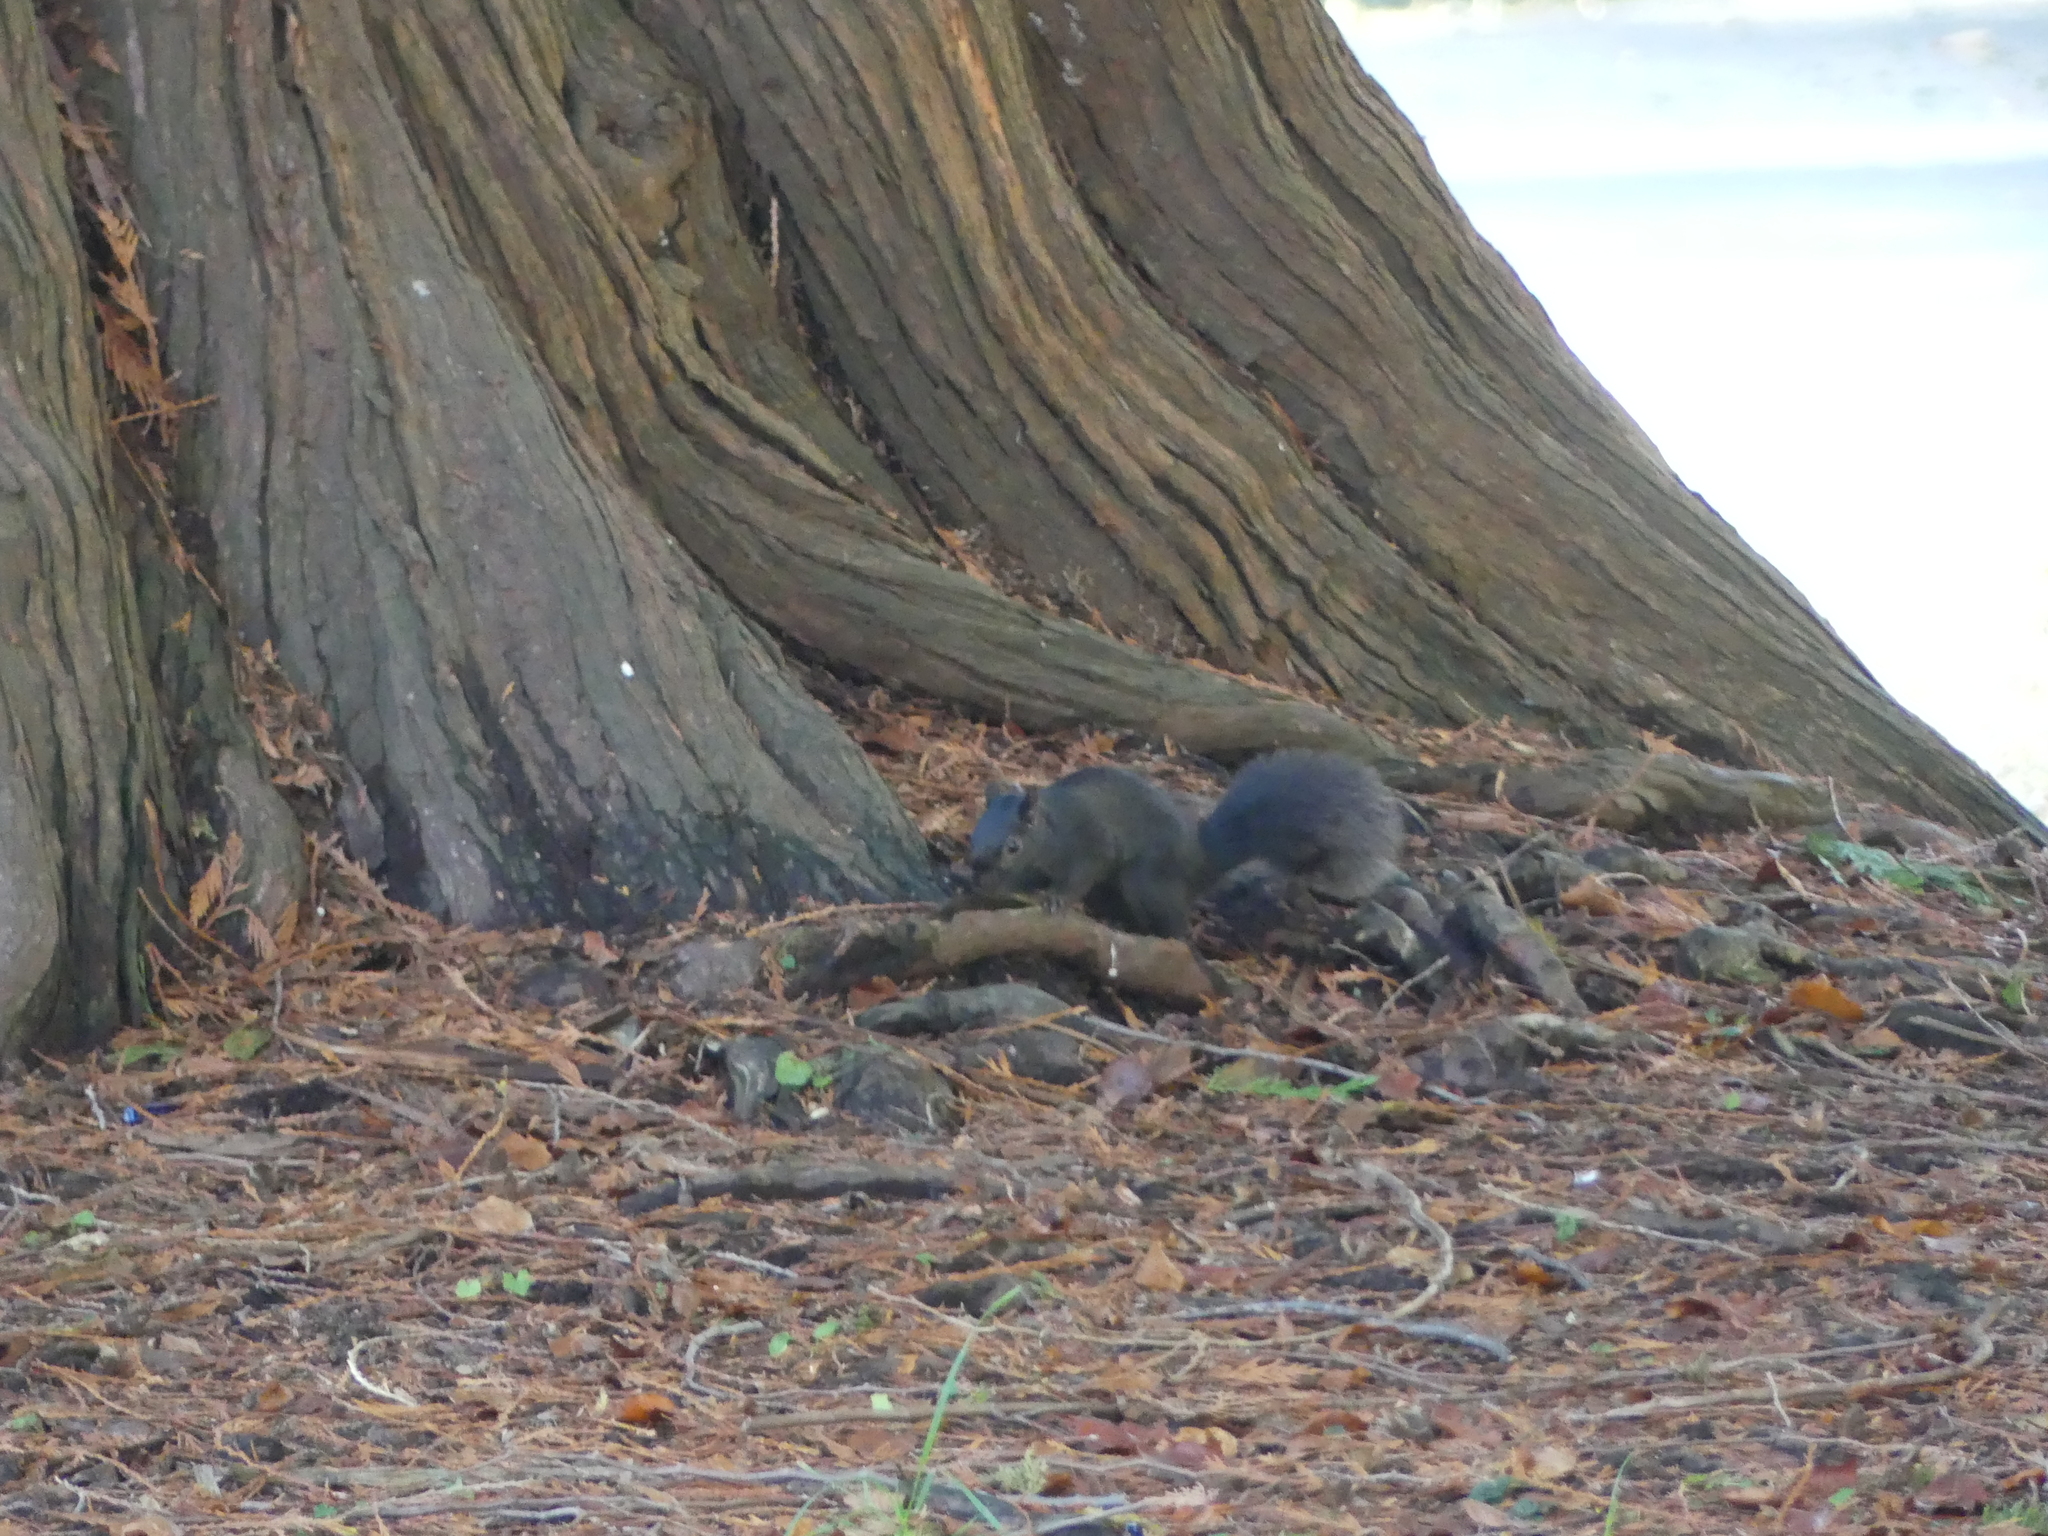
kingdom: Animalia
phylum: Chordata
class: Mammalia
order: Rodentia
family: Sciuridae
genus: Sciurus
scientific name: Sciurus carolinensis
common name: Eastern gray squirrel
